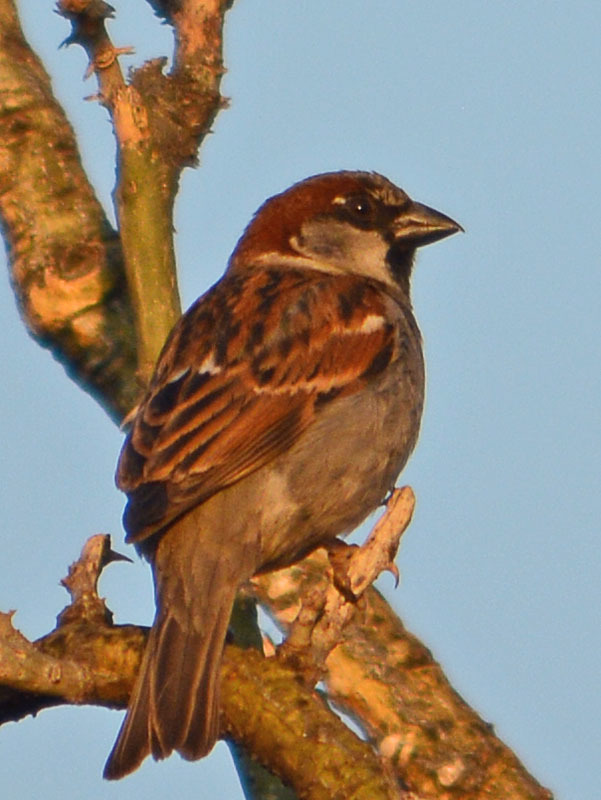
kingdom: Animalia
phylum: Chordata
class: Aves
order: Passeriformes
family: Passeridae
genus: Passer
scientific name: Passer domesticus
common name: House sparrow
